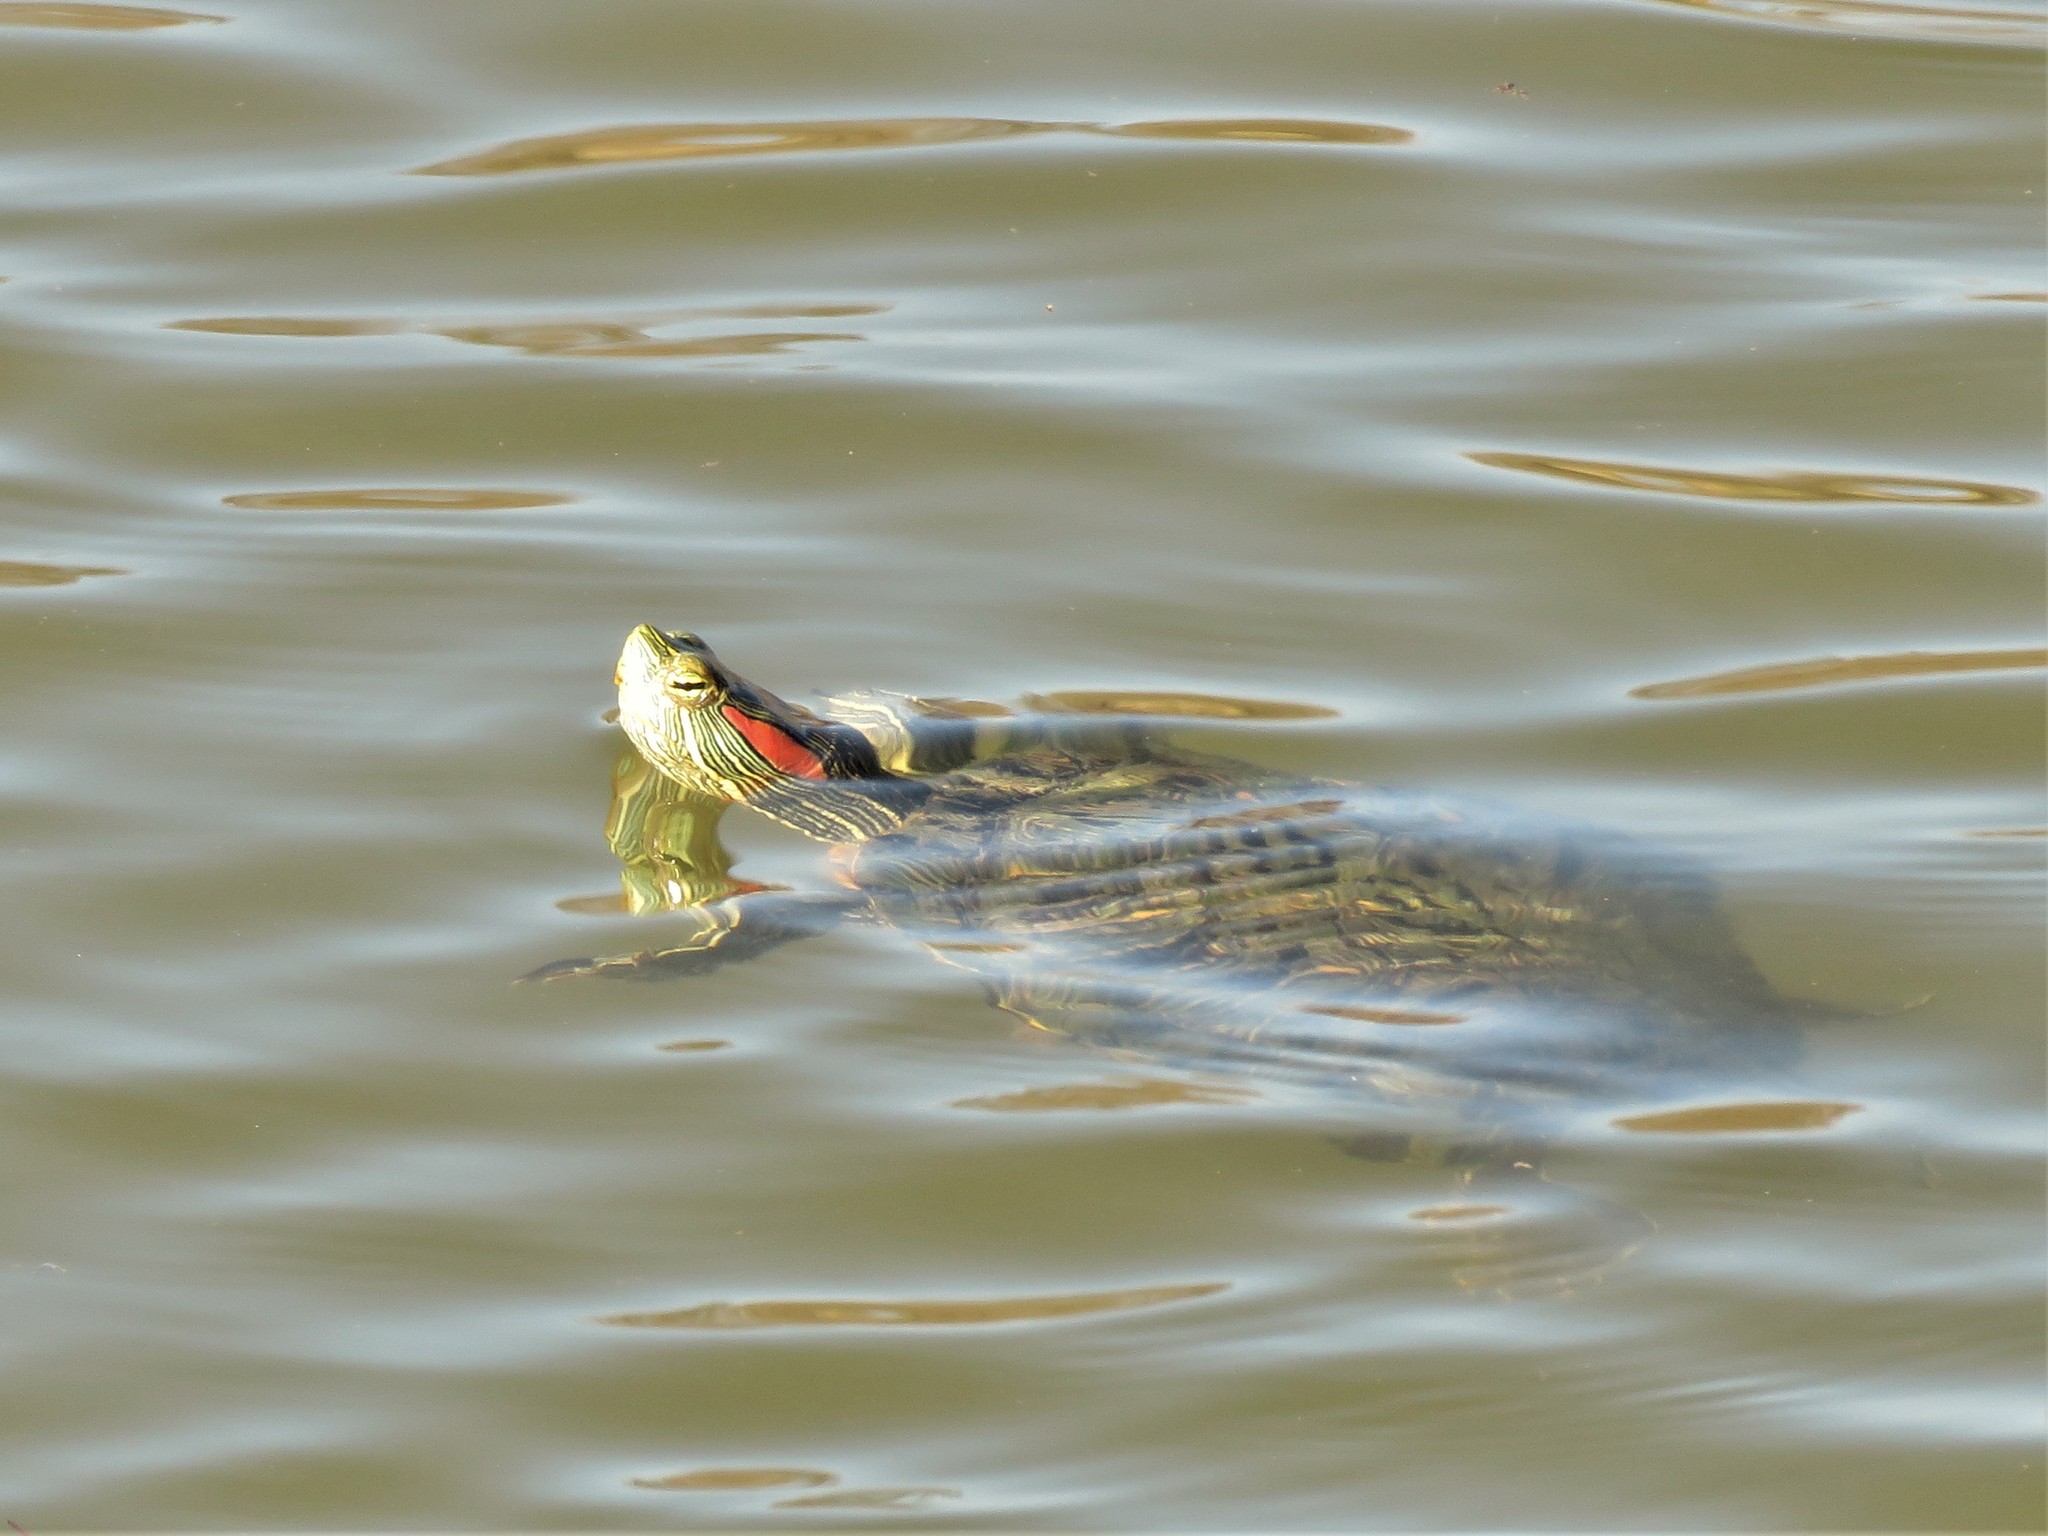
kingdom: Animalia
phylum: Chordata
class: Testudines
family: Emydidae
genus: Trachemys
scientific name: Trachemys scripta
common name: Slider
